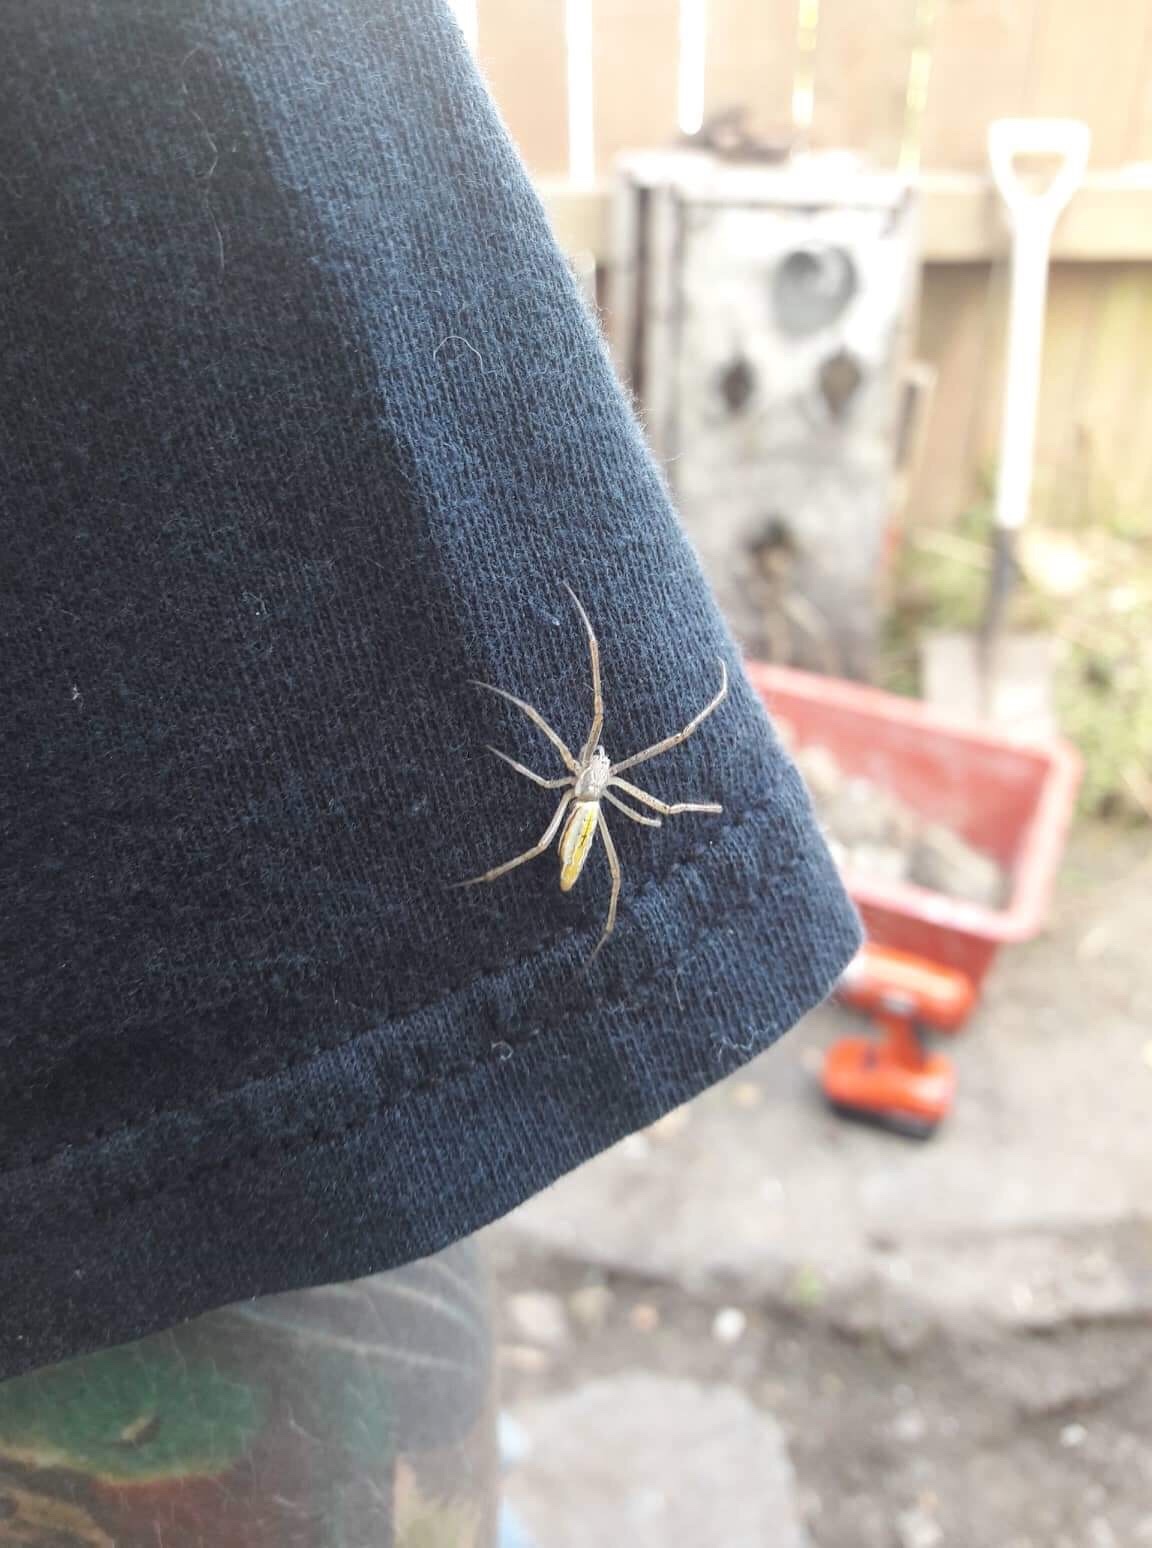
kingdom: Animalia
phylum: Arthropoda
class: Arachnida
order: Araneae
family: Araneidae
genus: Argiope
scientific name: Argiope protensa
